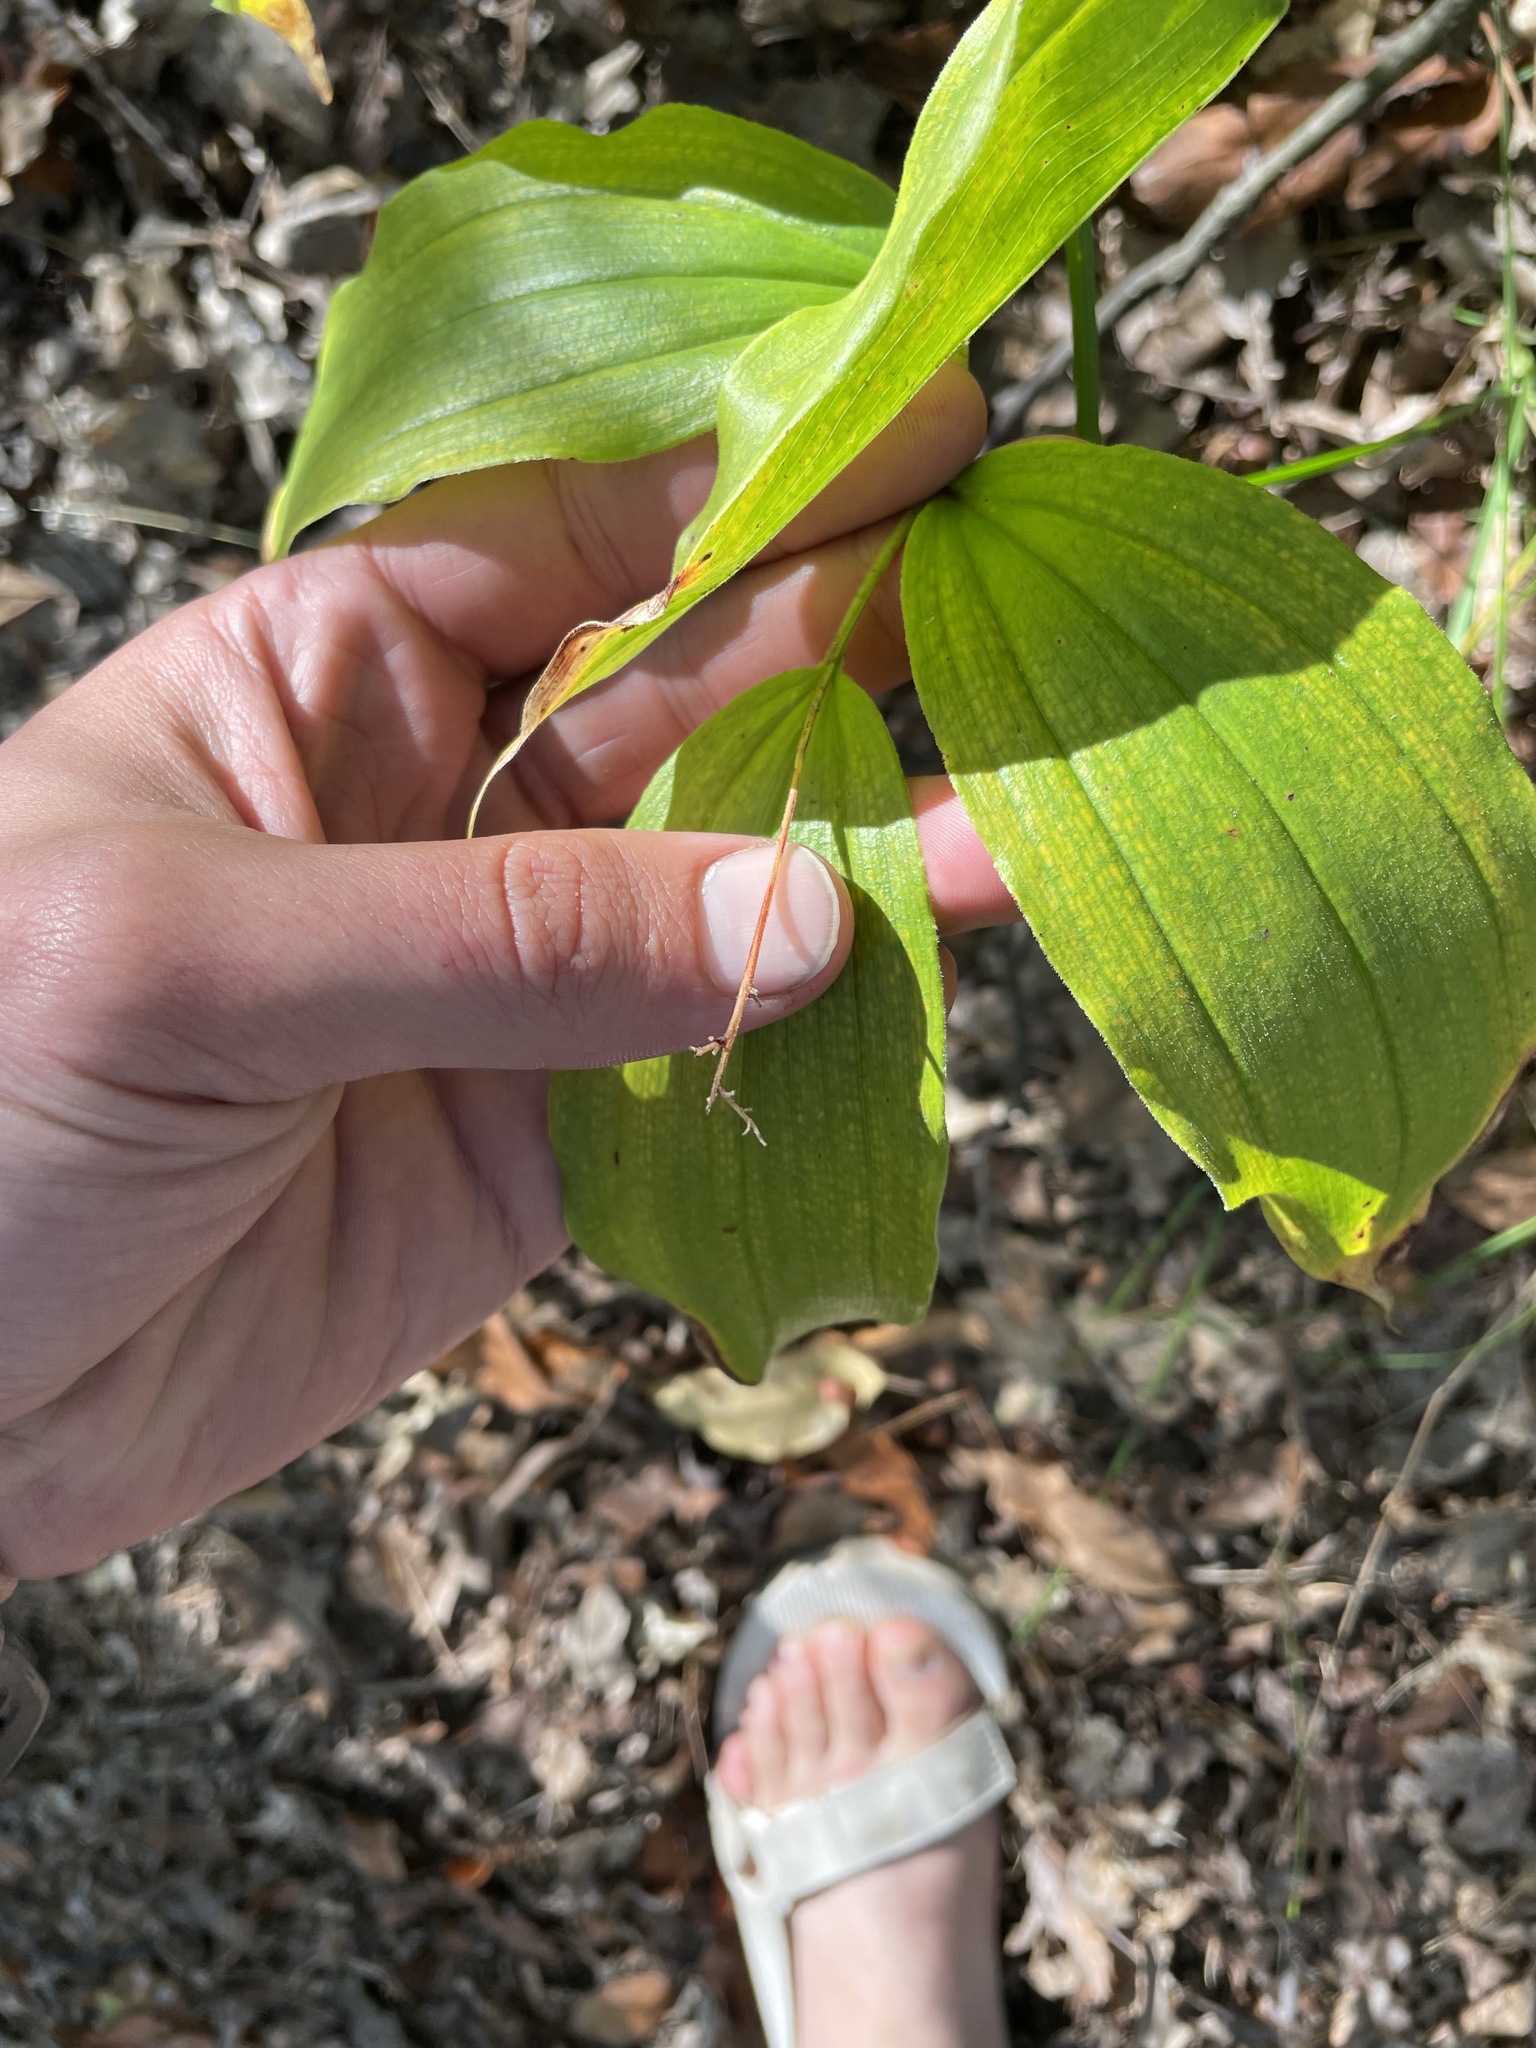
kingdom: Plantae
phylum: Tracheophyta
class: Liliopsida
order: Asparagales
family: Asparagaceae
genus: Maianthemum
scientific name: Maianthemum racemosum
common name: False spikenard
